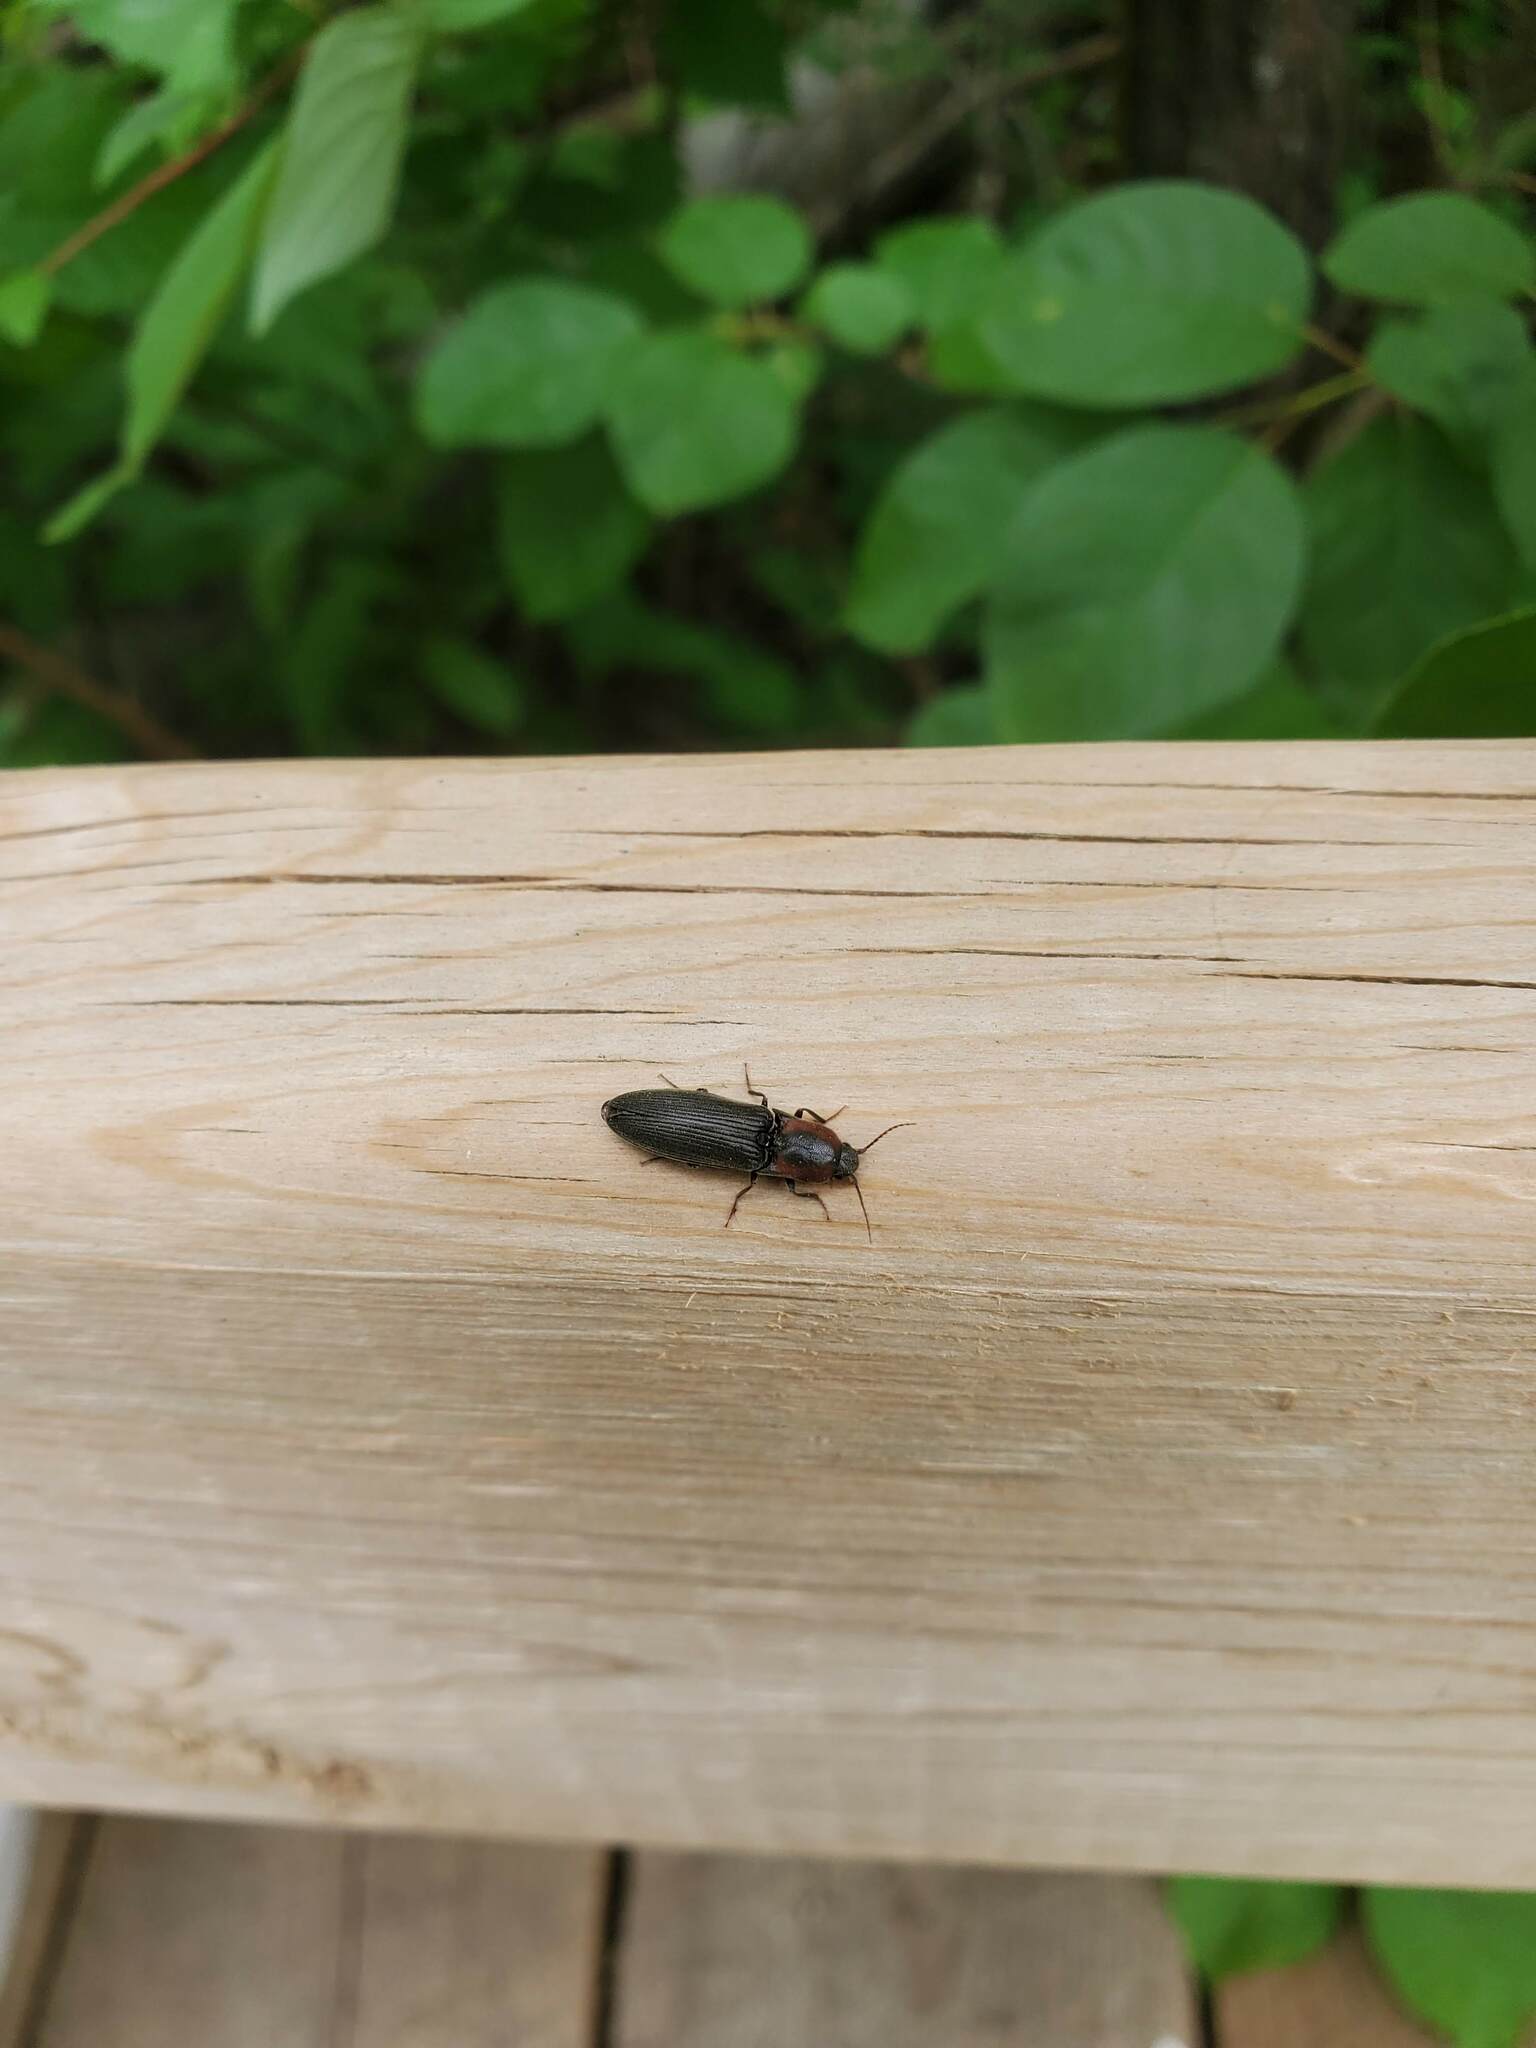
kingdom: Animalia
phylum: Arthropoda
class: Insecta
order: Coleoptera
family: Elateridae
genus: Agriotes
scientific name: Agriotes fucosus
